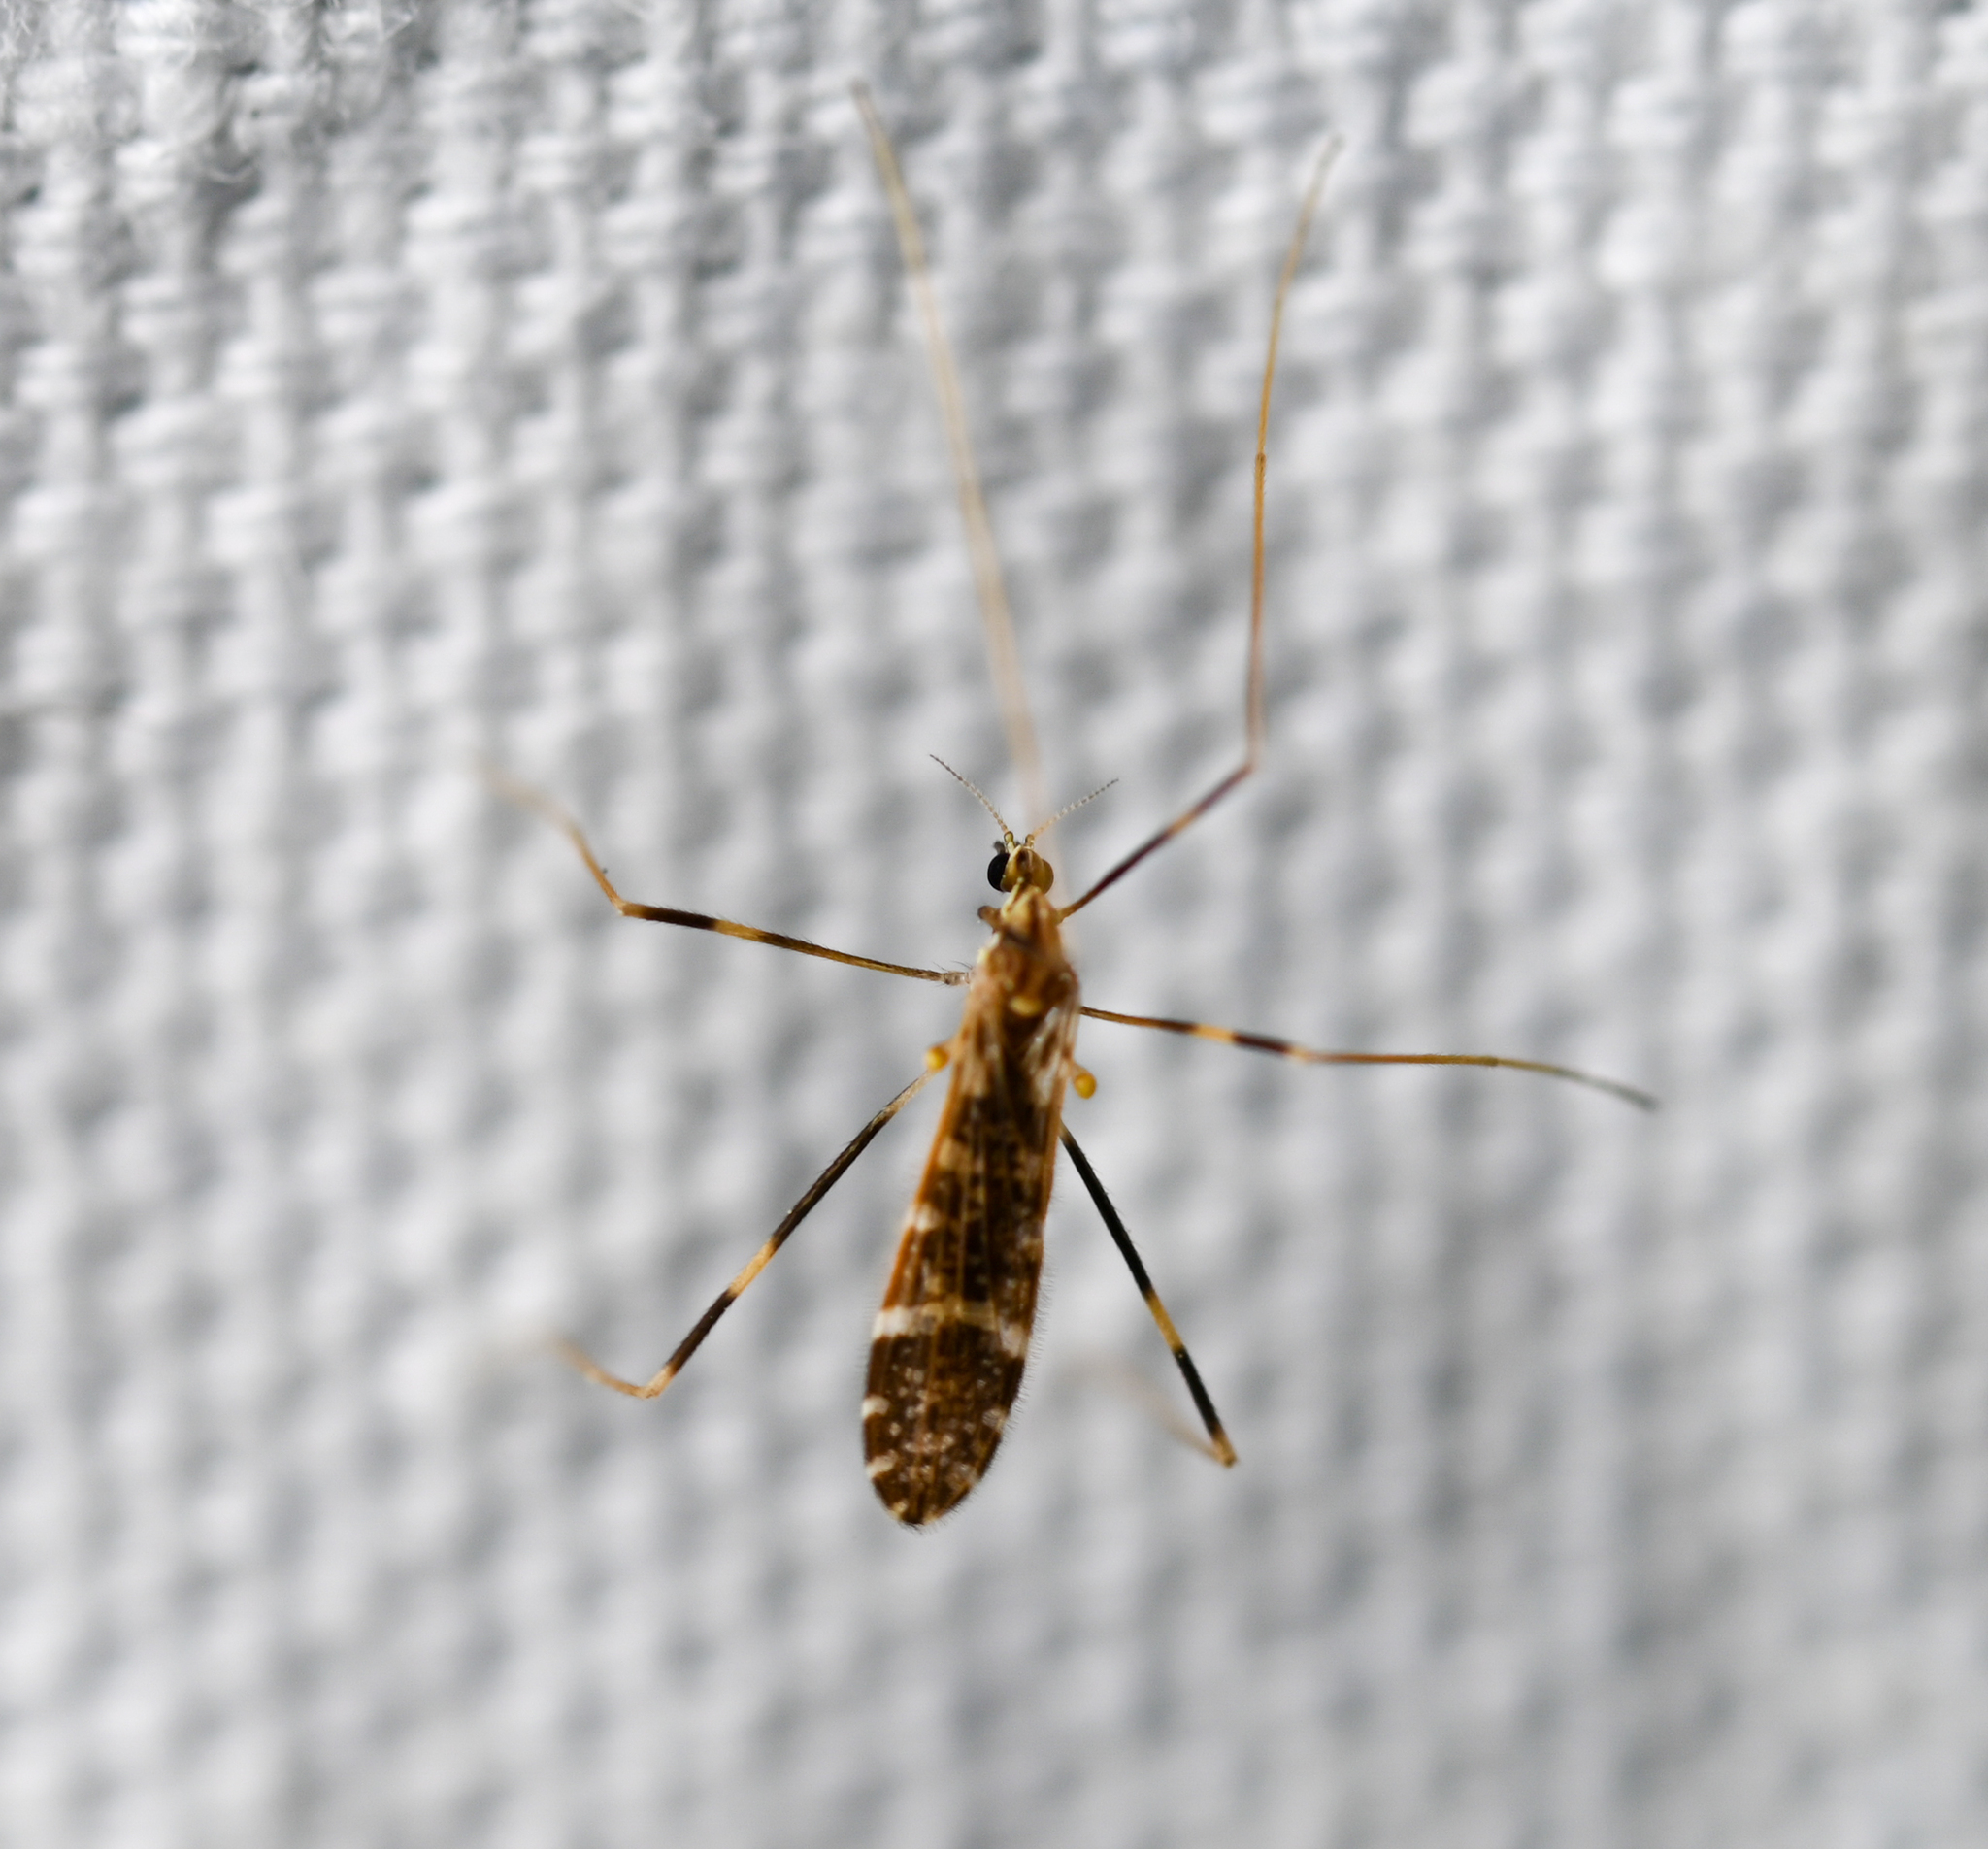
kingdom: Animalia
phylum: Arthropoda
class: Insecta
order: Diptera
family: Limoniidae
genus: Erioptera
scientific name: Erioptera caliptera
